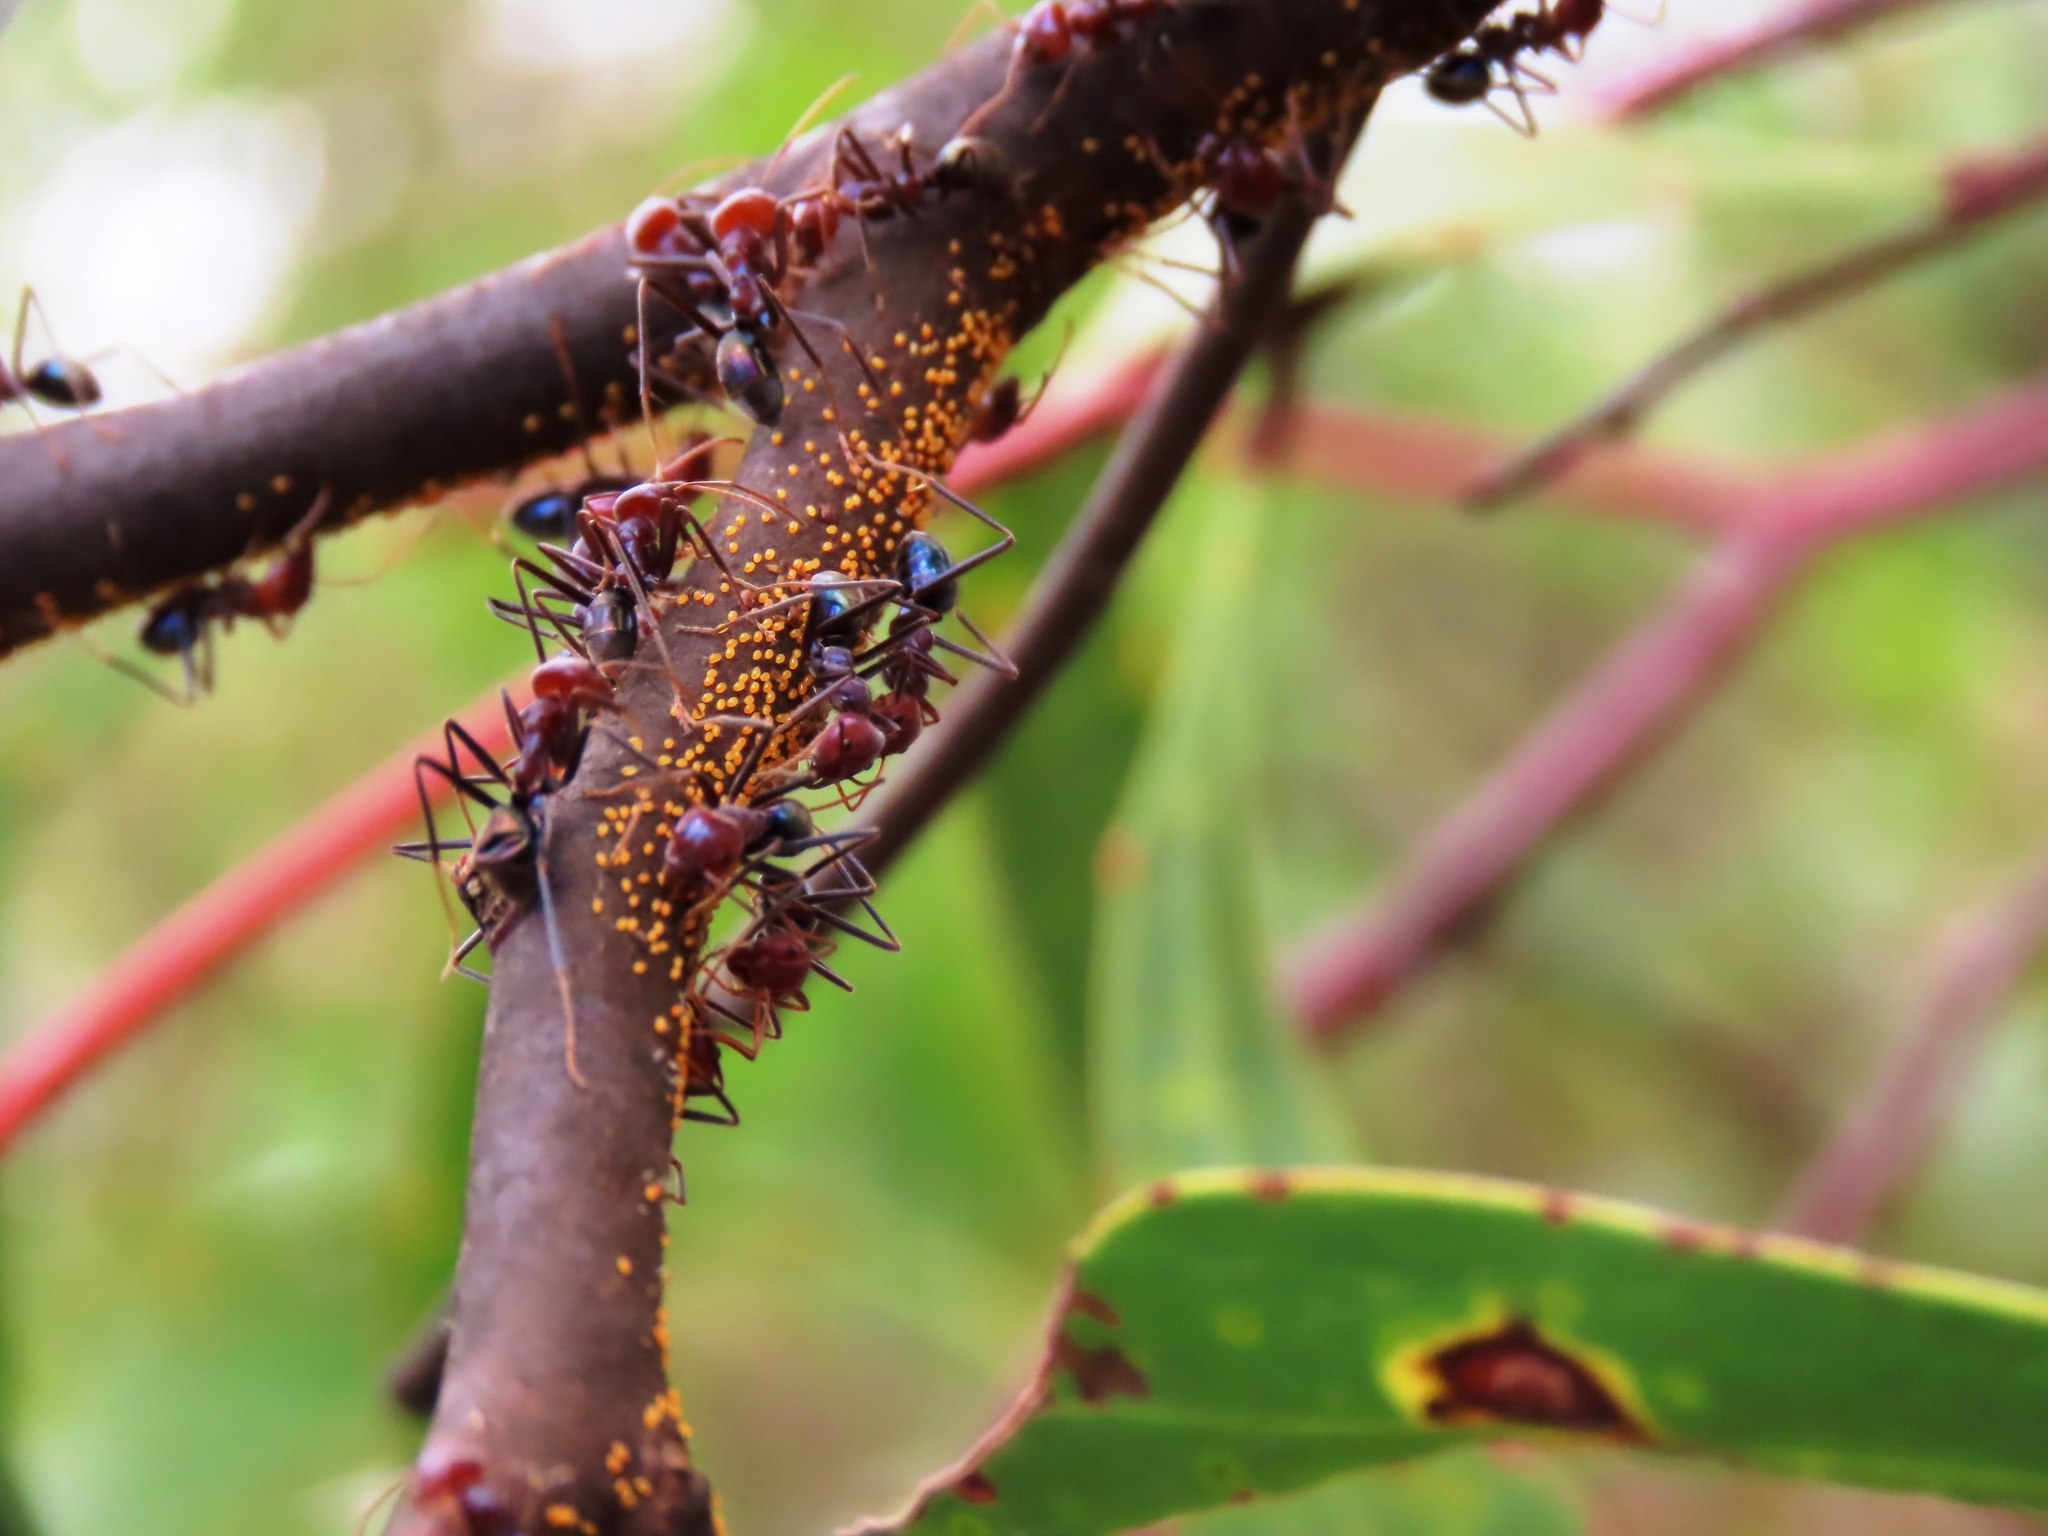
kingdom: Animalia
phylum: Arthropoda
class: Insecta
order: Hymenoptera
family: Formicidae
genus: Iridomyrmex
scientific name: Iridomyrmex purpureus
